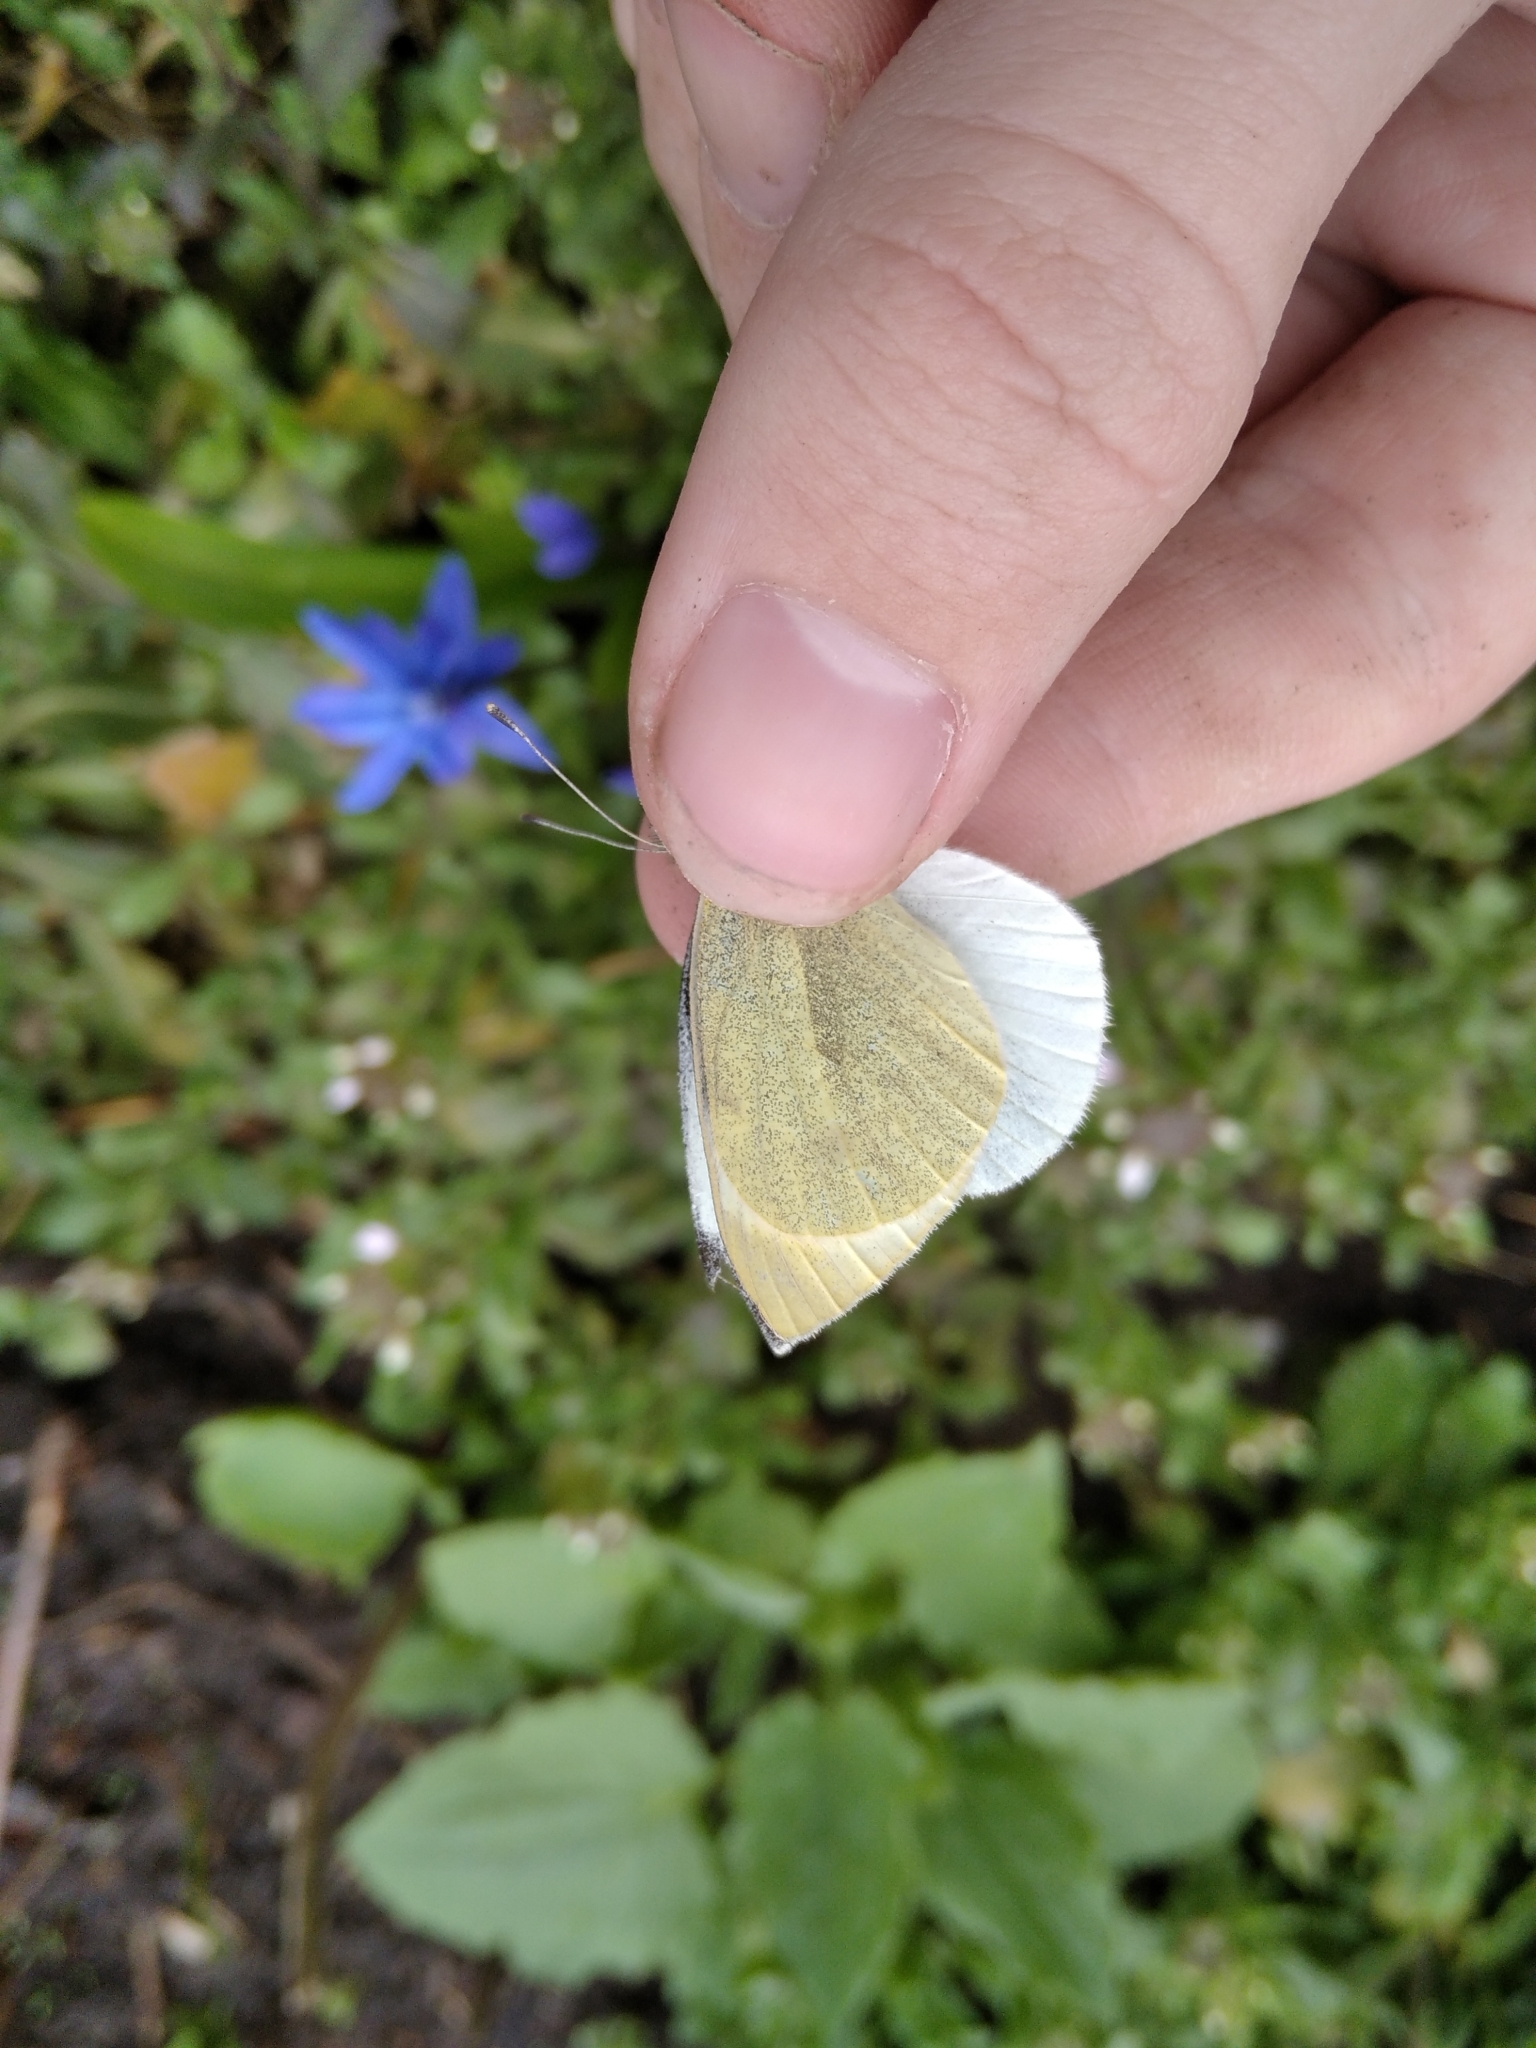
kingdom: Animalia
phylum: Arthropoda
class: Insecta
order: Lepidoptera
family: Pieridae
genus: Pieris
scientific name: Pieris brassicae
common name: Large white
